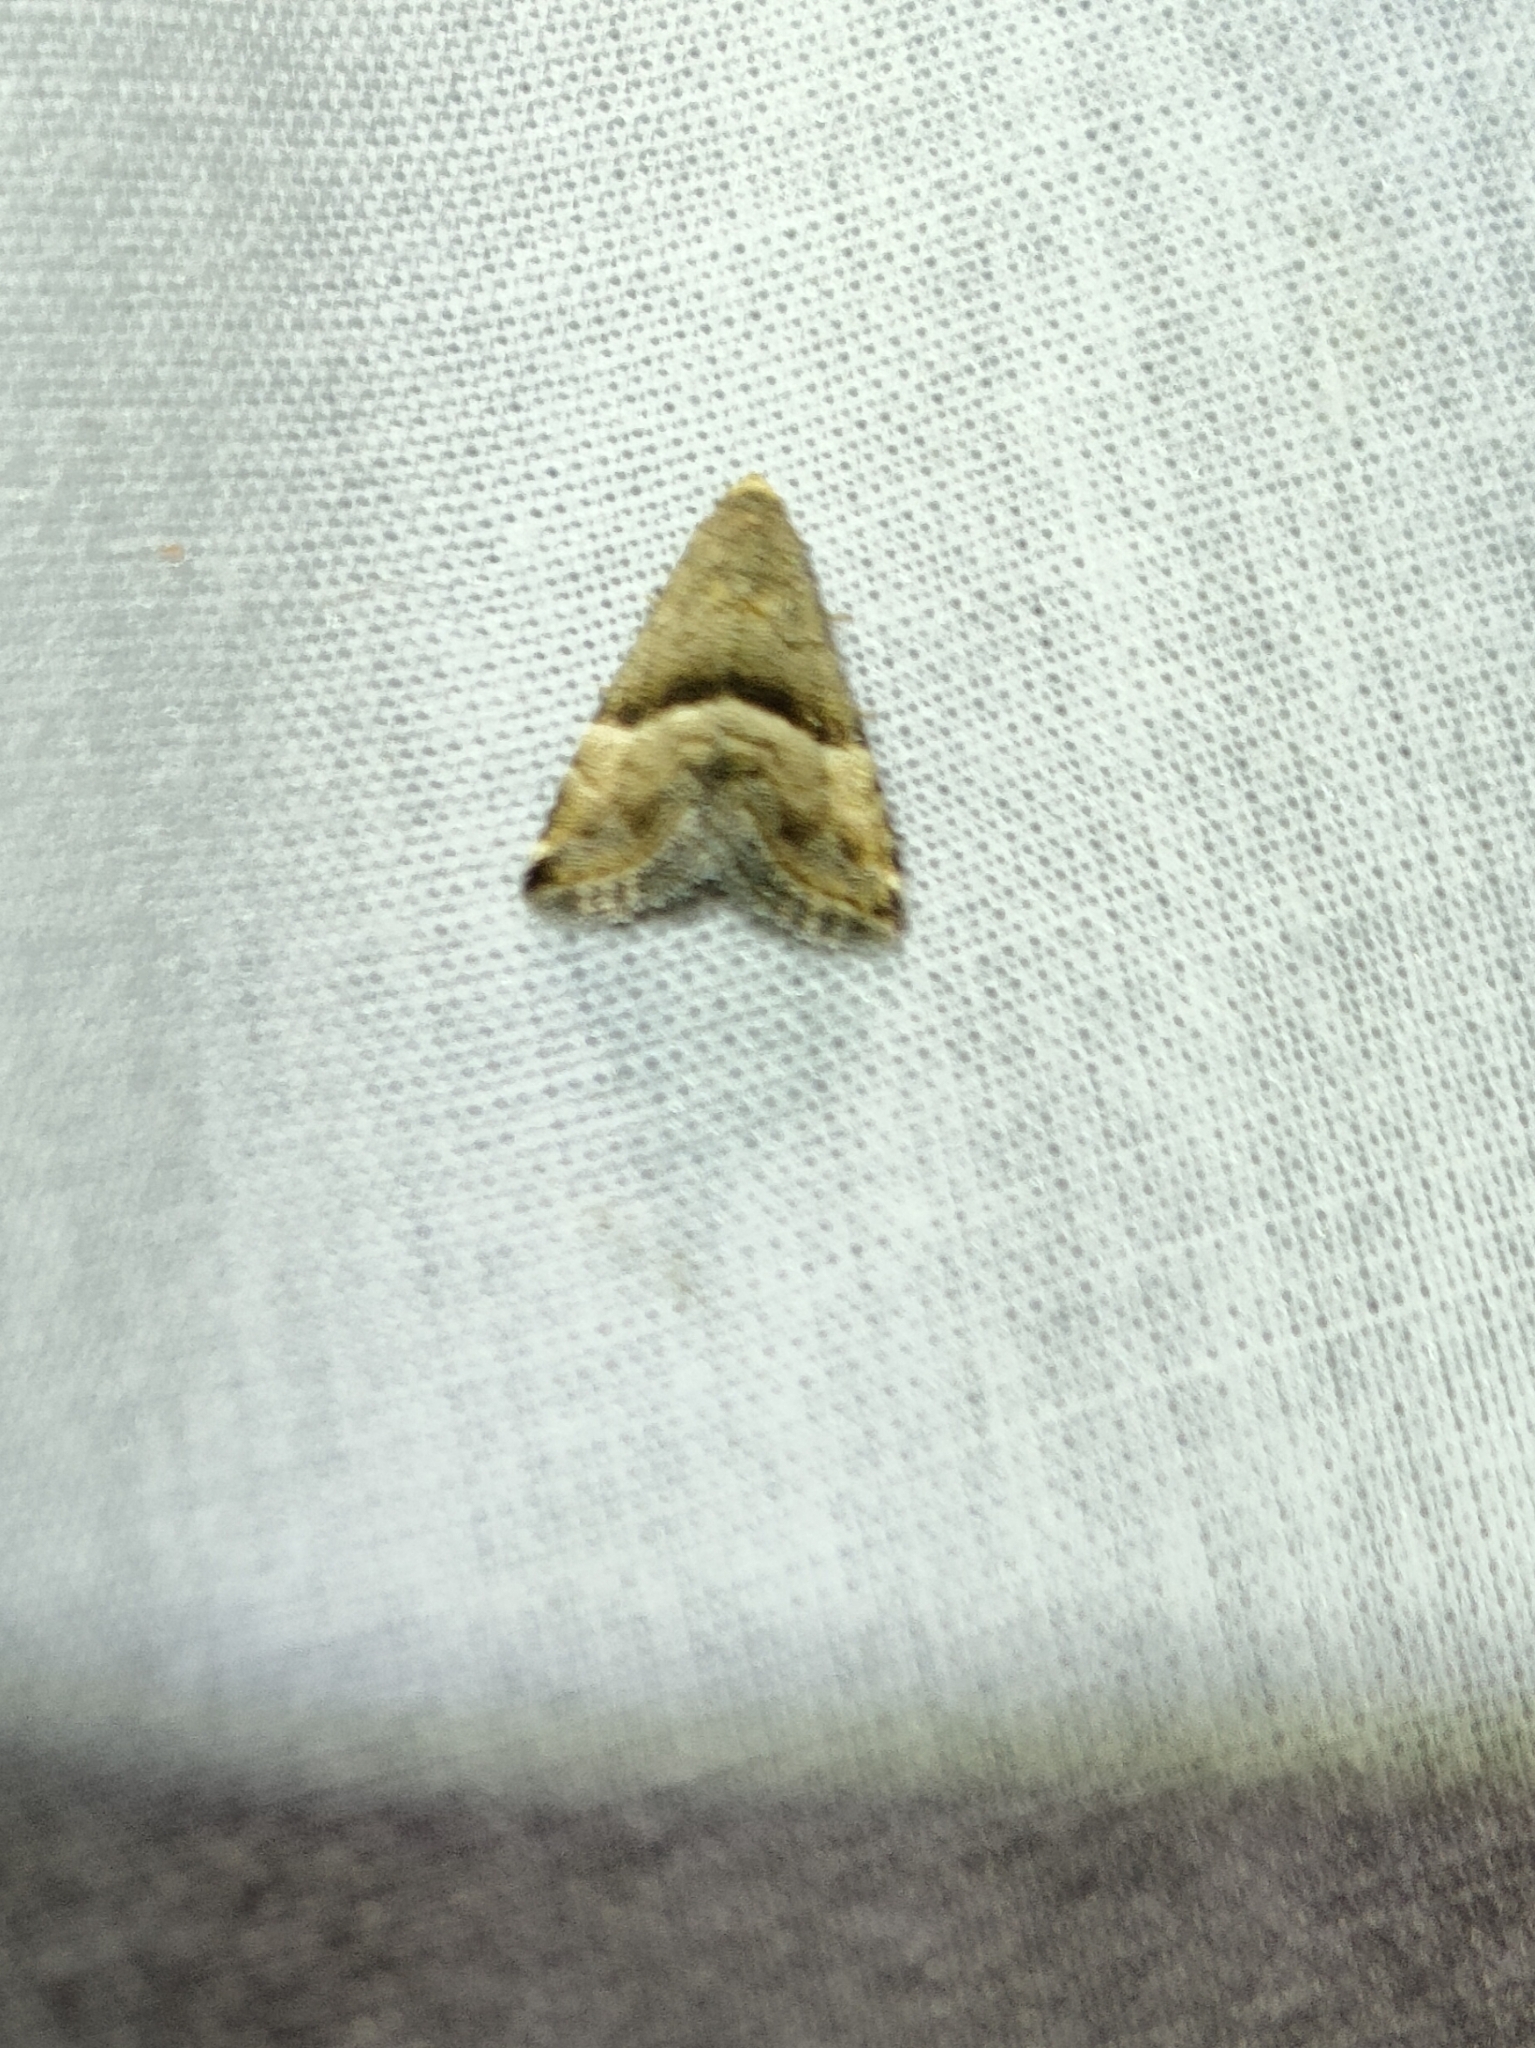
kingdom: Animalia
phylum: Arthropoda
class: Insecta
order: Lepidoptera
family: Noctuidae
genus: Odice
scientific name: Odice jucunda
